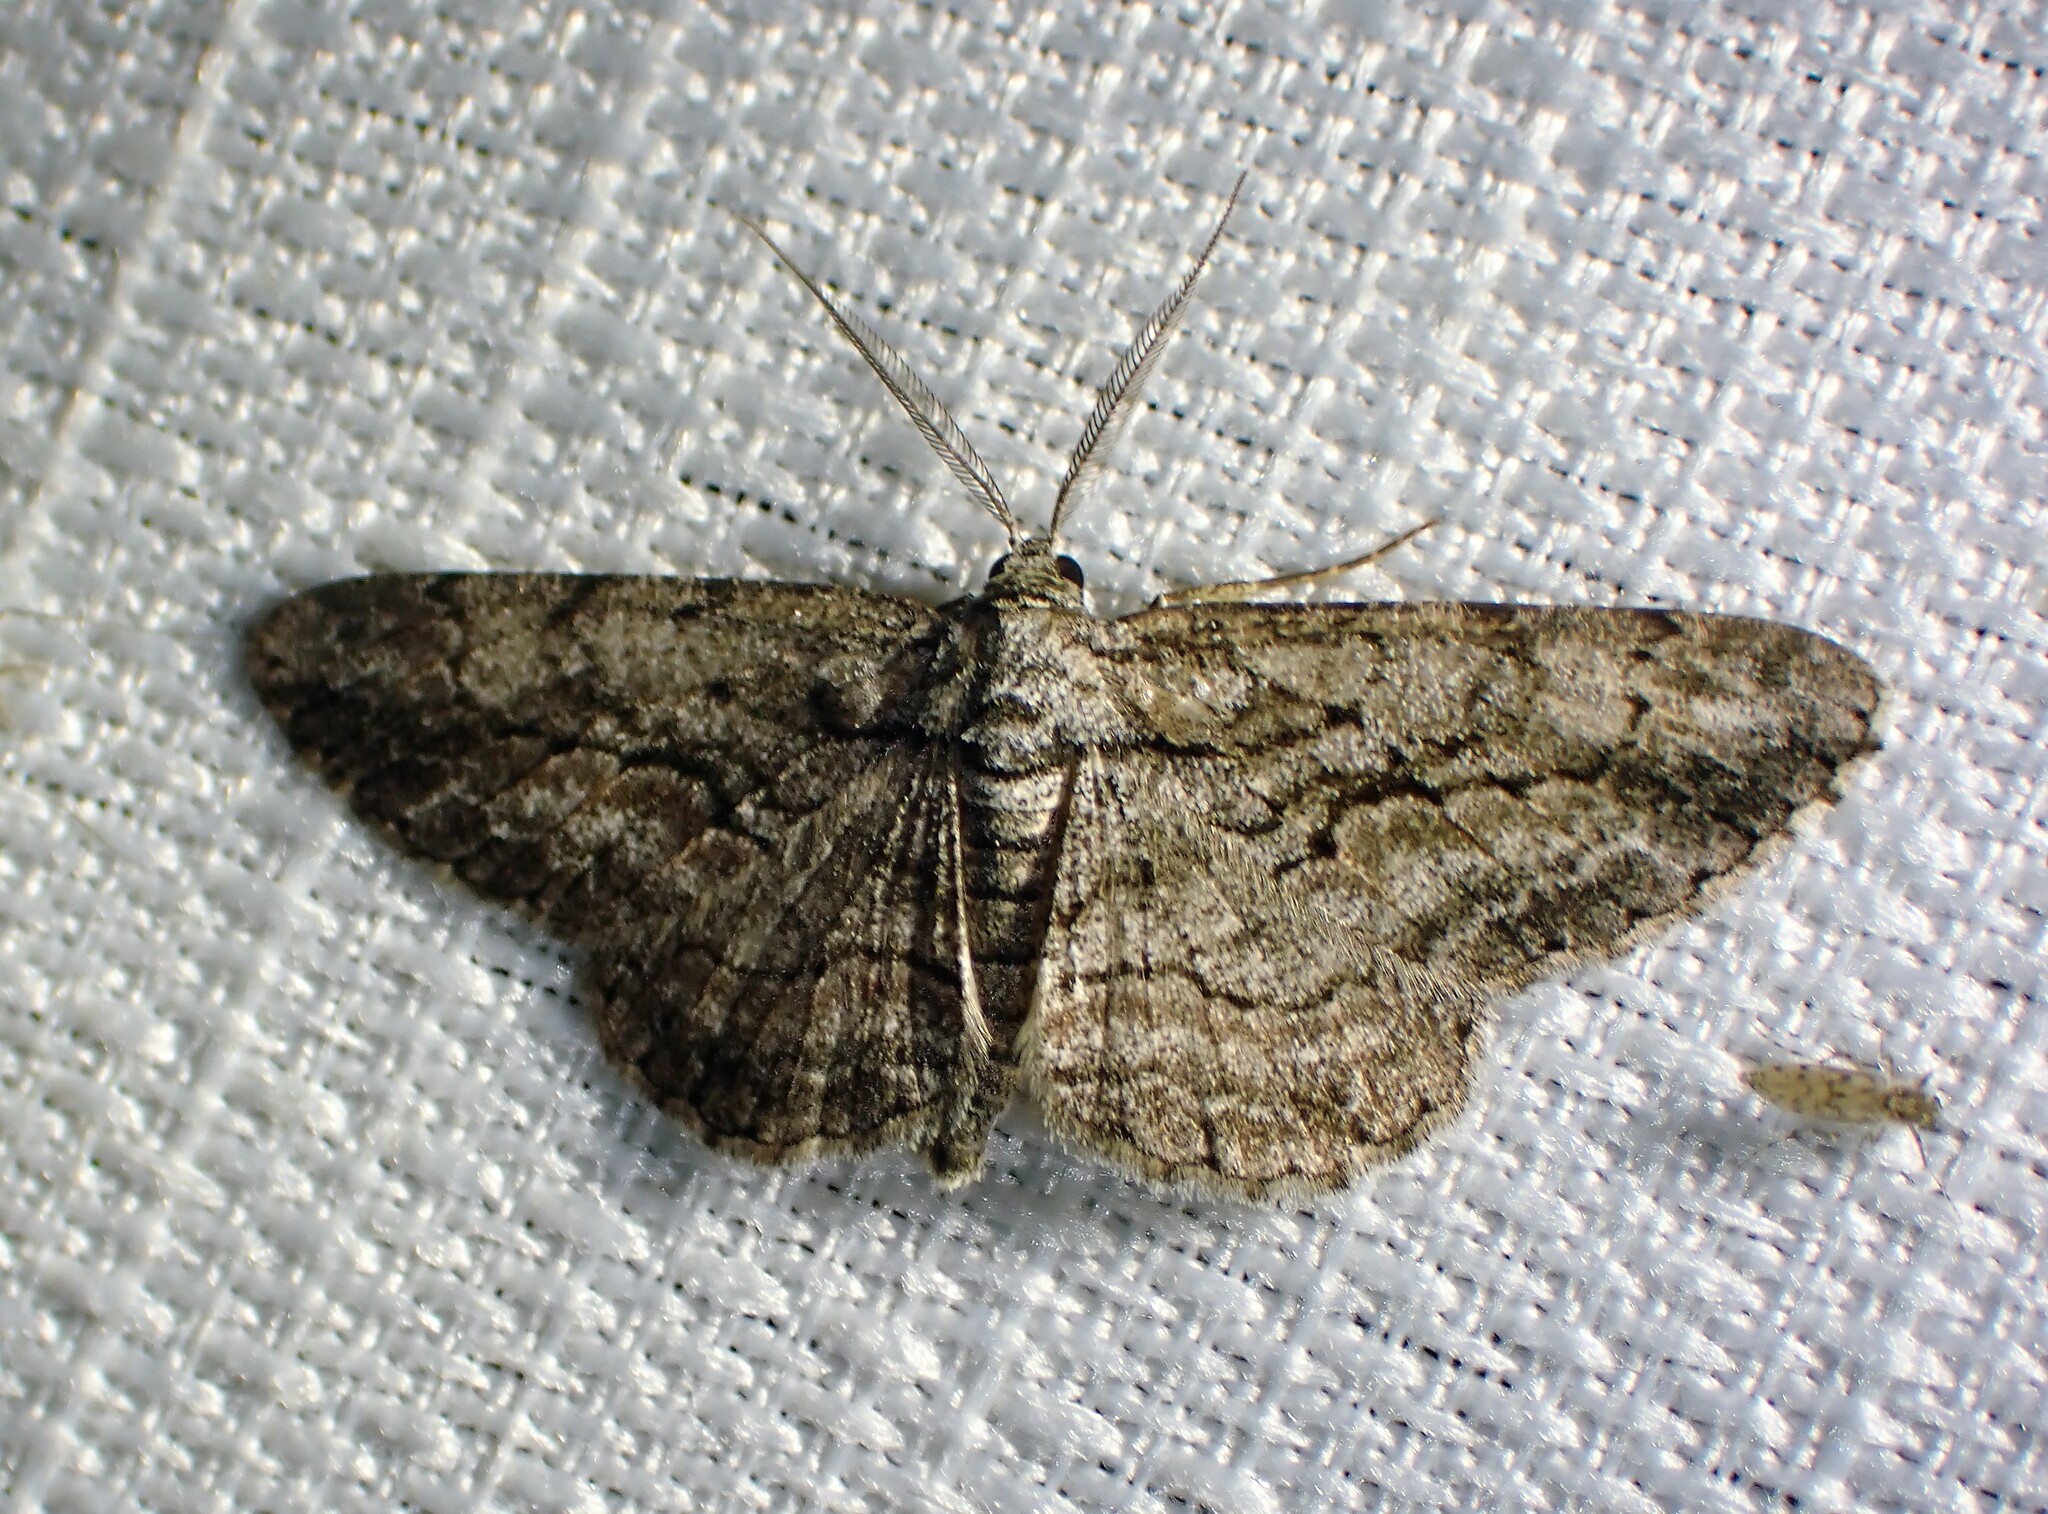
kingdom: Animalia
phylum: Arthropoda
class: Insecta
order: Lepidoptera
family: Geometridae
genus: Anavitrinella
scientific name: Anavitrinella pampinaria
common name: Common gray
